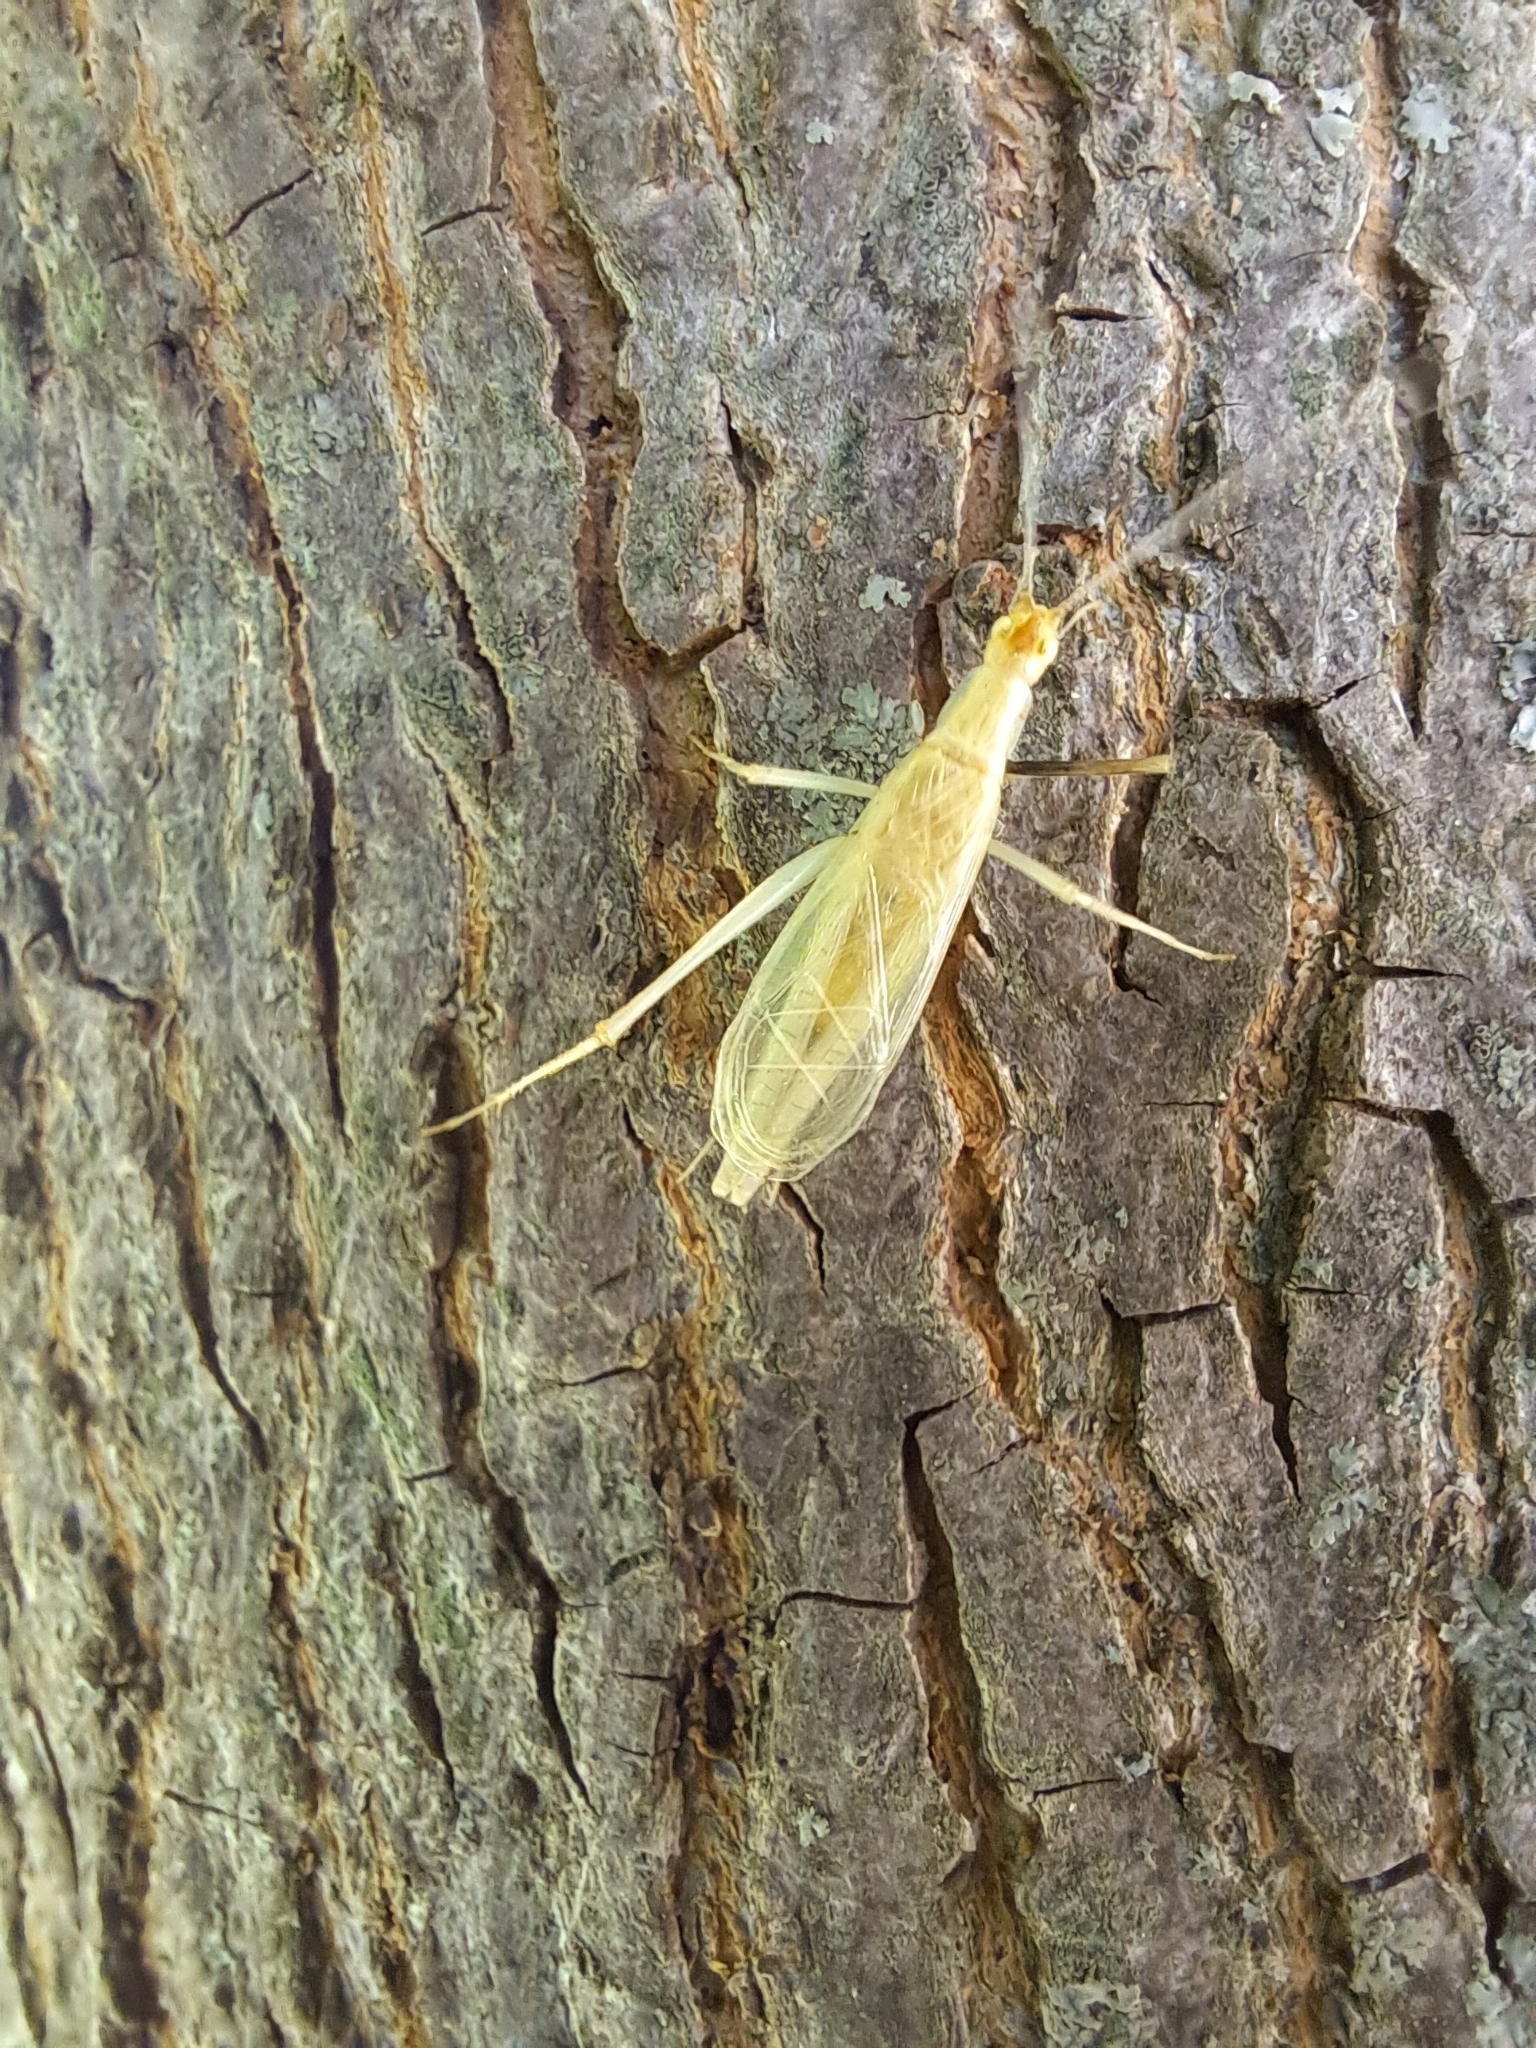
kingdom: Animalia
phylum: Arthropoda
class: Insecta
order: Orthoptera
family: Gryllidae
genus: Oecanthus
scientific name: Oecanthus niveus
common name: Narrow-winged tree cricket
